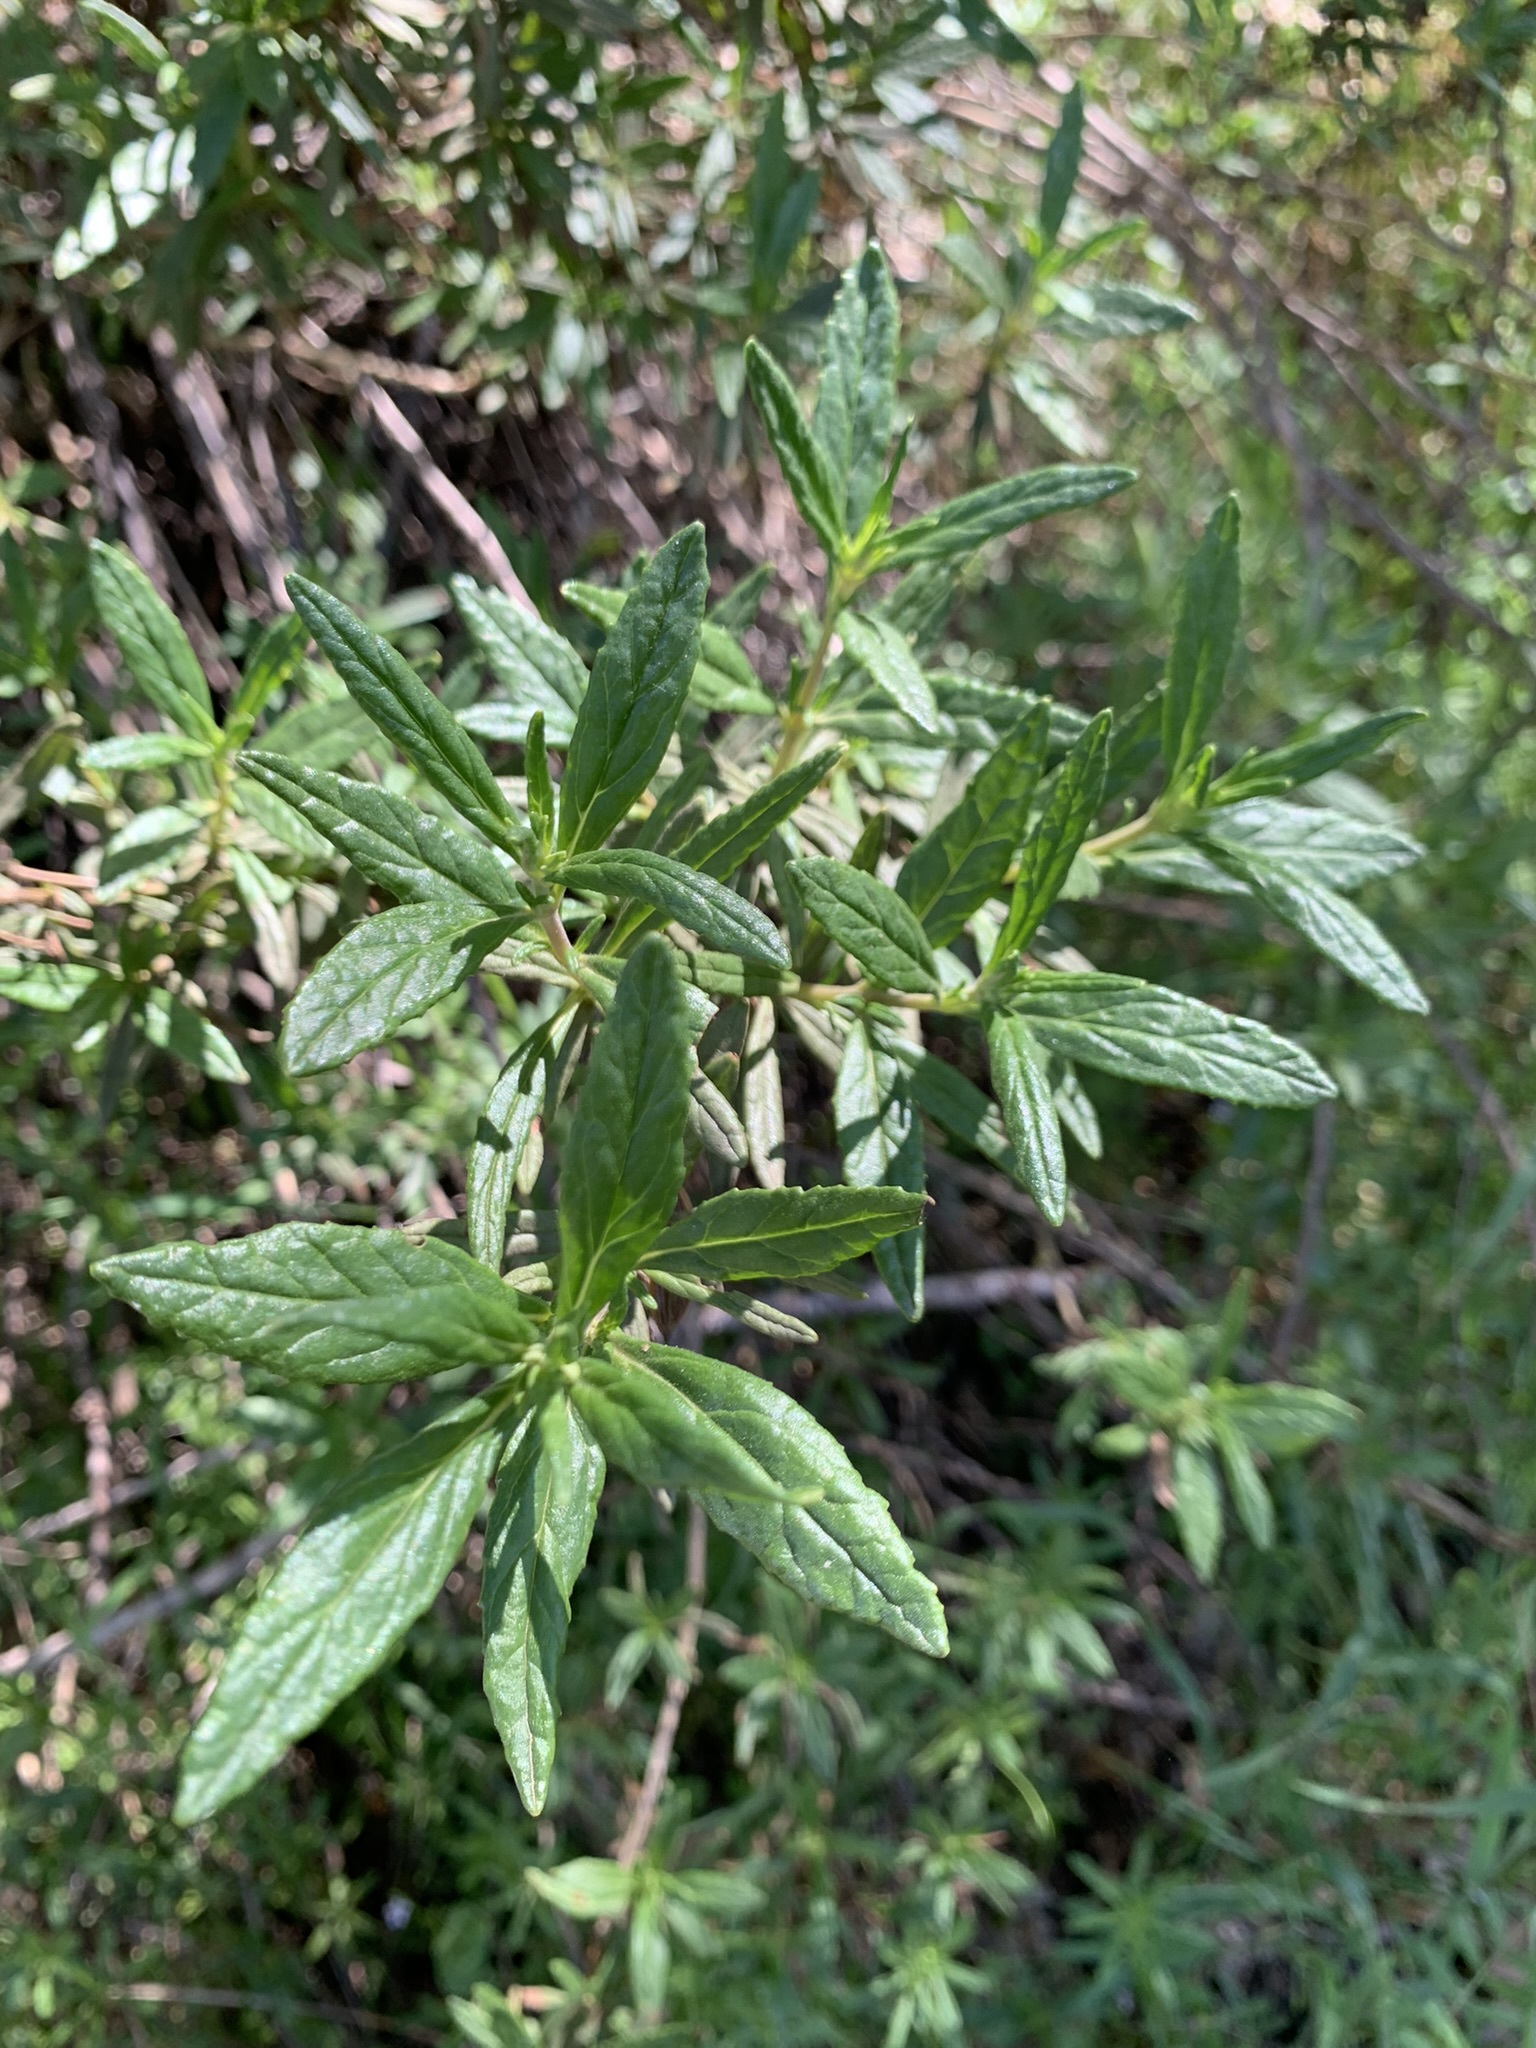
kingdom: Plantae
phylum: Tracheophyta
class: Magnoliopsida
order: Lamiales
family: Phrymaceae
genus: Diplacus
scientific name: Diplacus aurantiacus
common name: Bush monkey-flower
